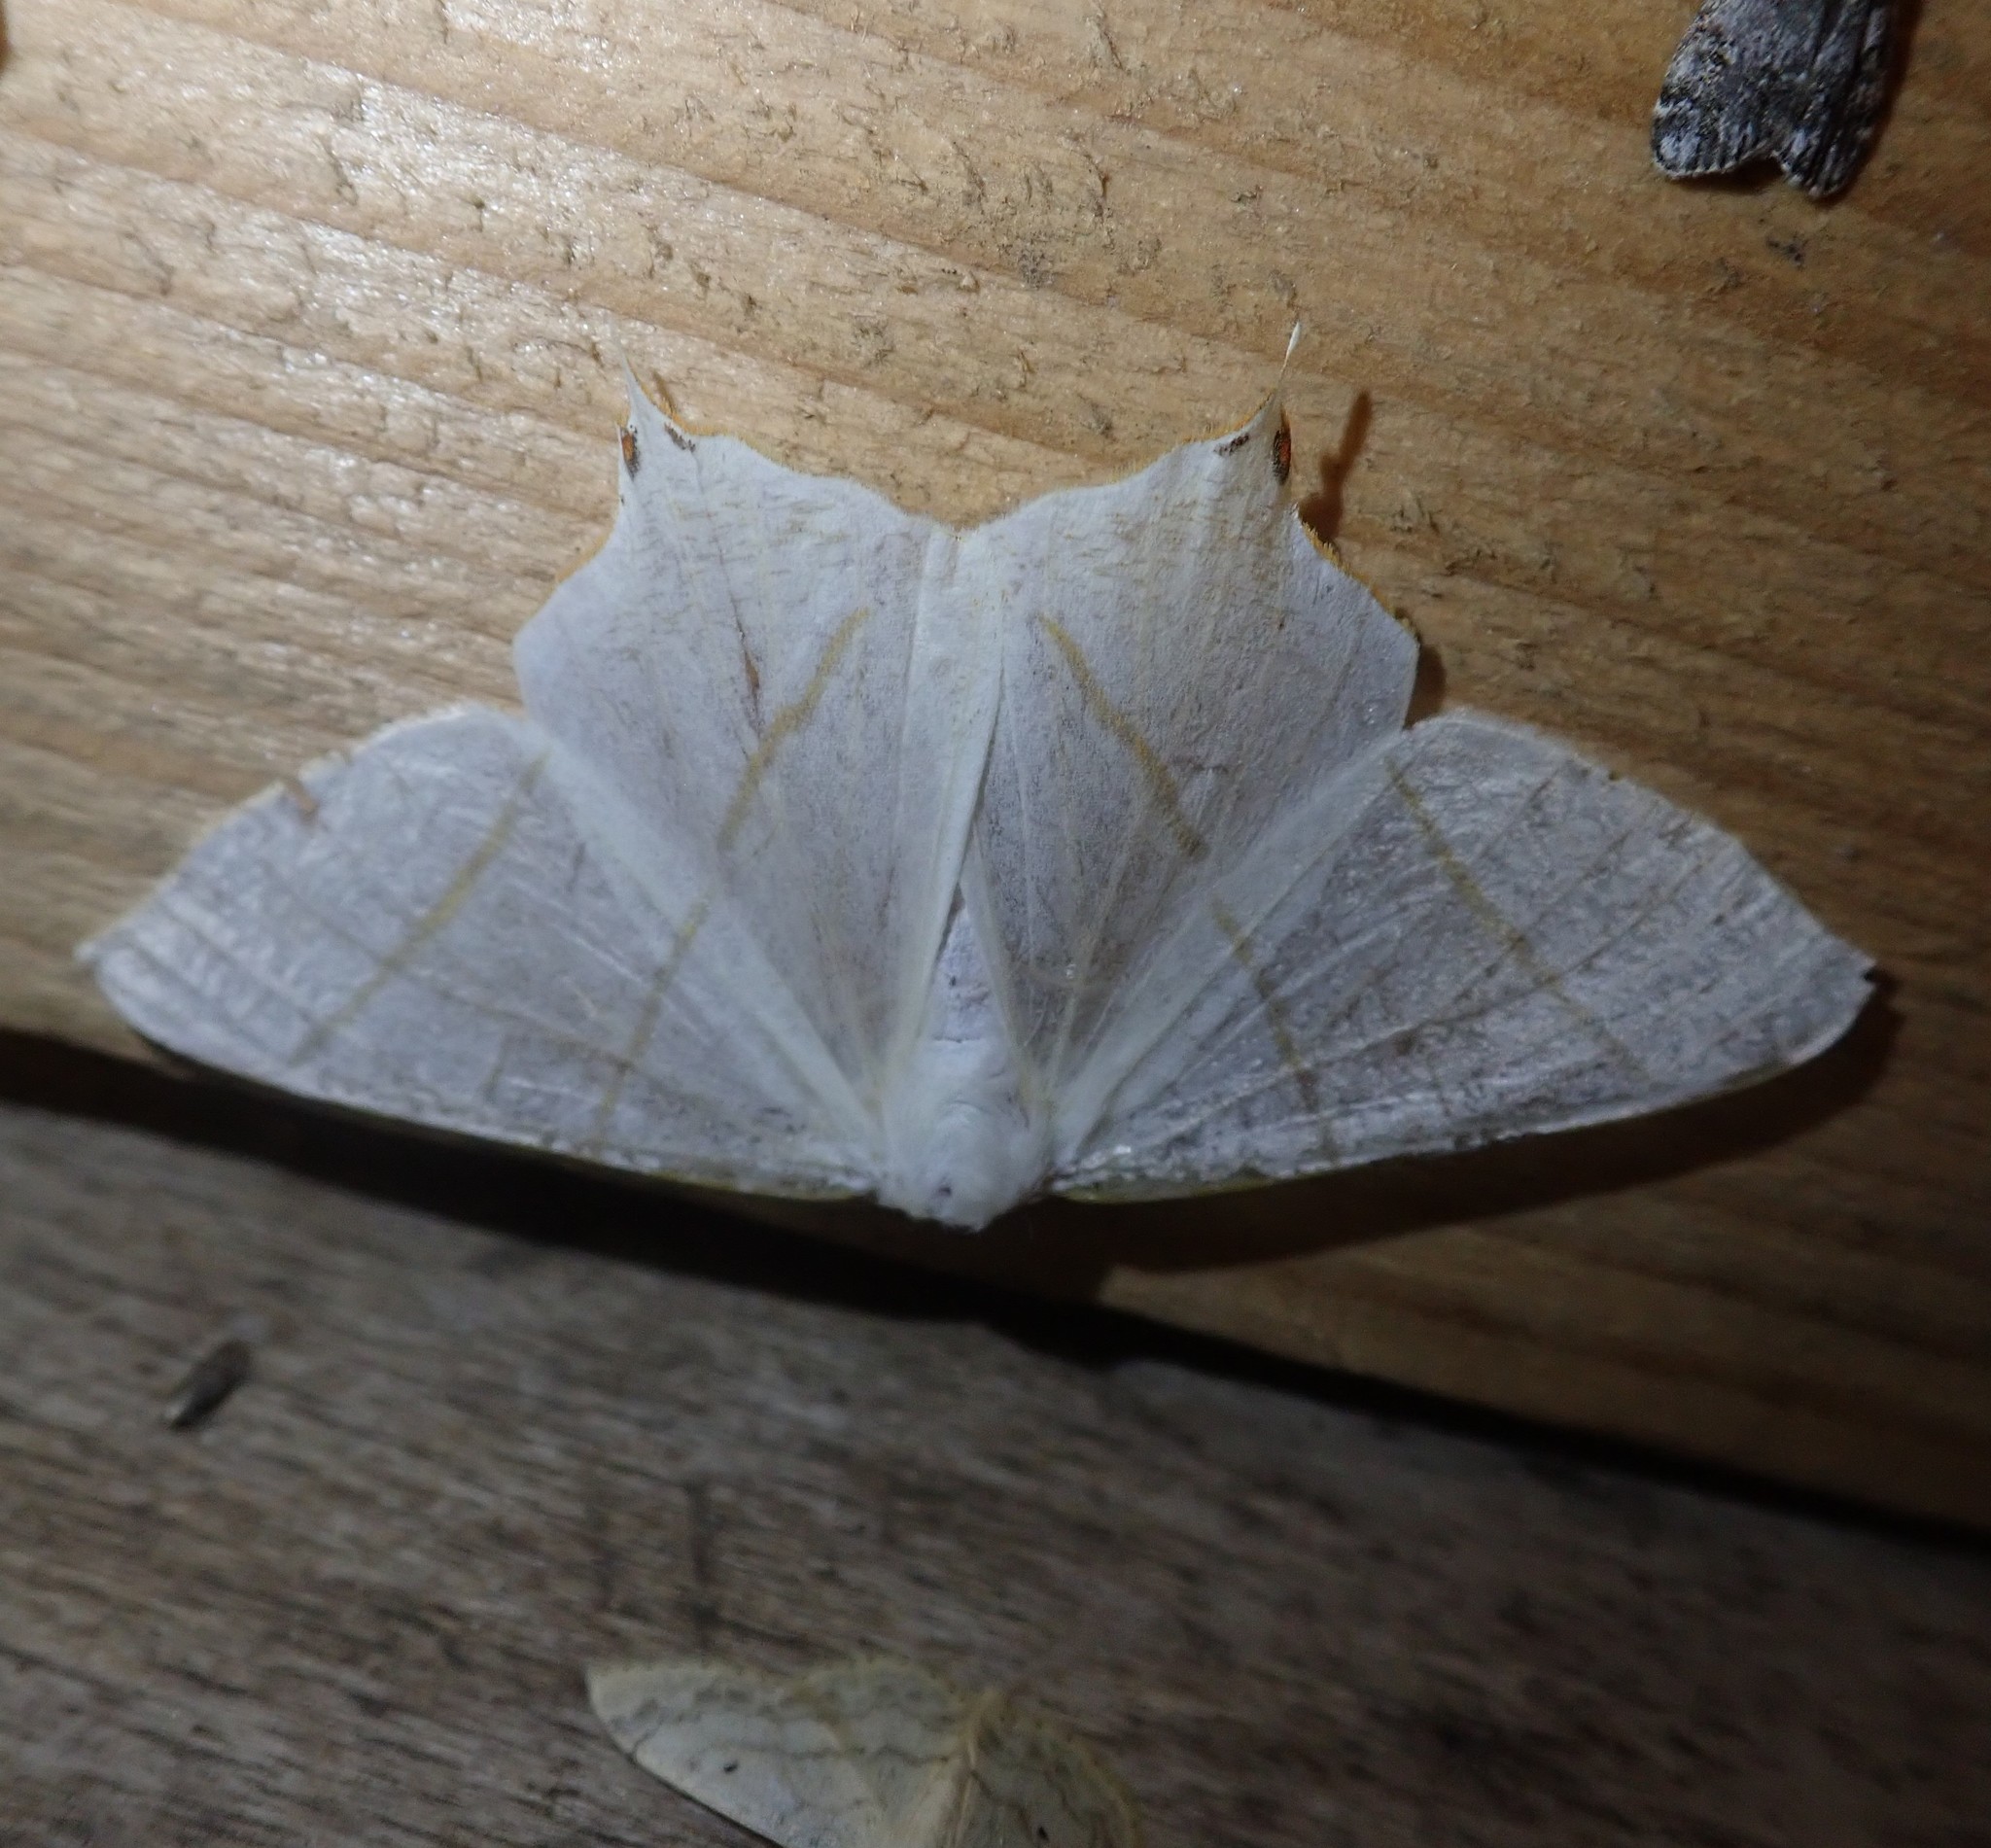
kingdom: Animalia
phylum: Arthropoda
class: Insecta
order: Lepidoptera
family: Geometridae
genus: Ourapteryx
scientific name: Ourapteryx sambucaria
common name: Swallow-tailed moth
